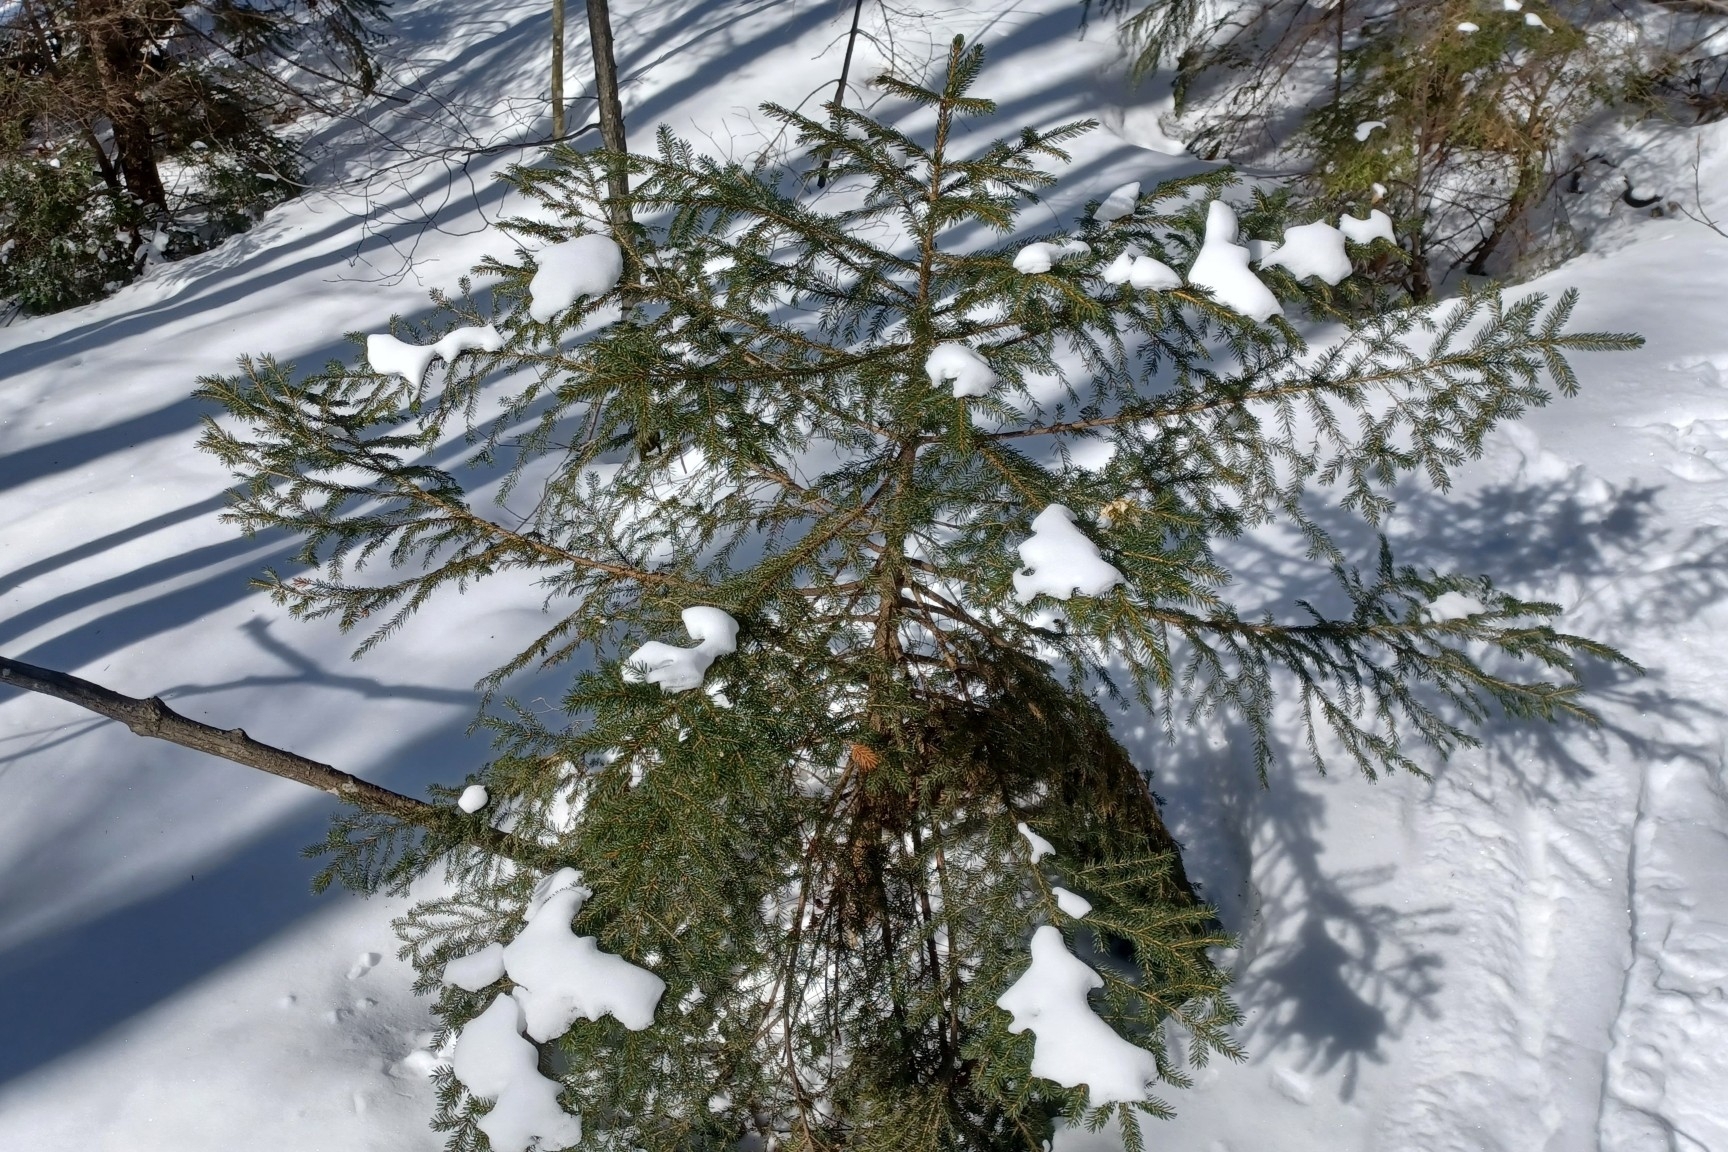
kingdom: Plantae
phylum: Tracheophyta
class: Pinopsida
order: Pinales
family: Pinaceae
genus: Picea
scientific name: Picea rubens
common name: Red spruce
